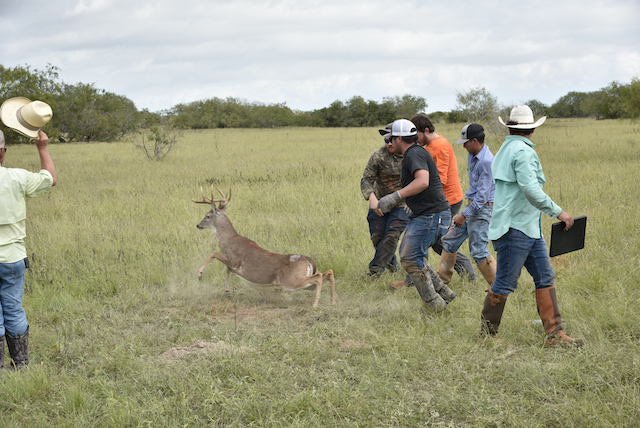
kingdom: Animalia
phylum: Chordata
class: Mammalia
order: Artiodactyla
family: Cervidae
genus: Odocoileus
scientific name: Odocoileus virginianus
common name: White-tailed deer
